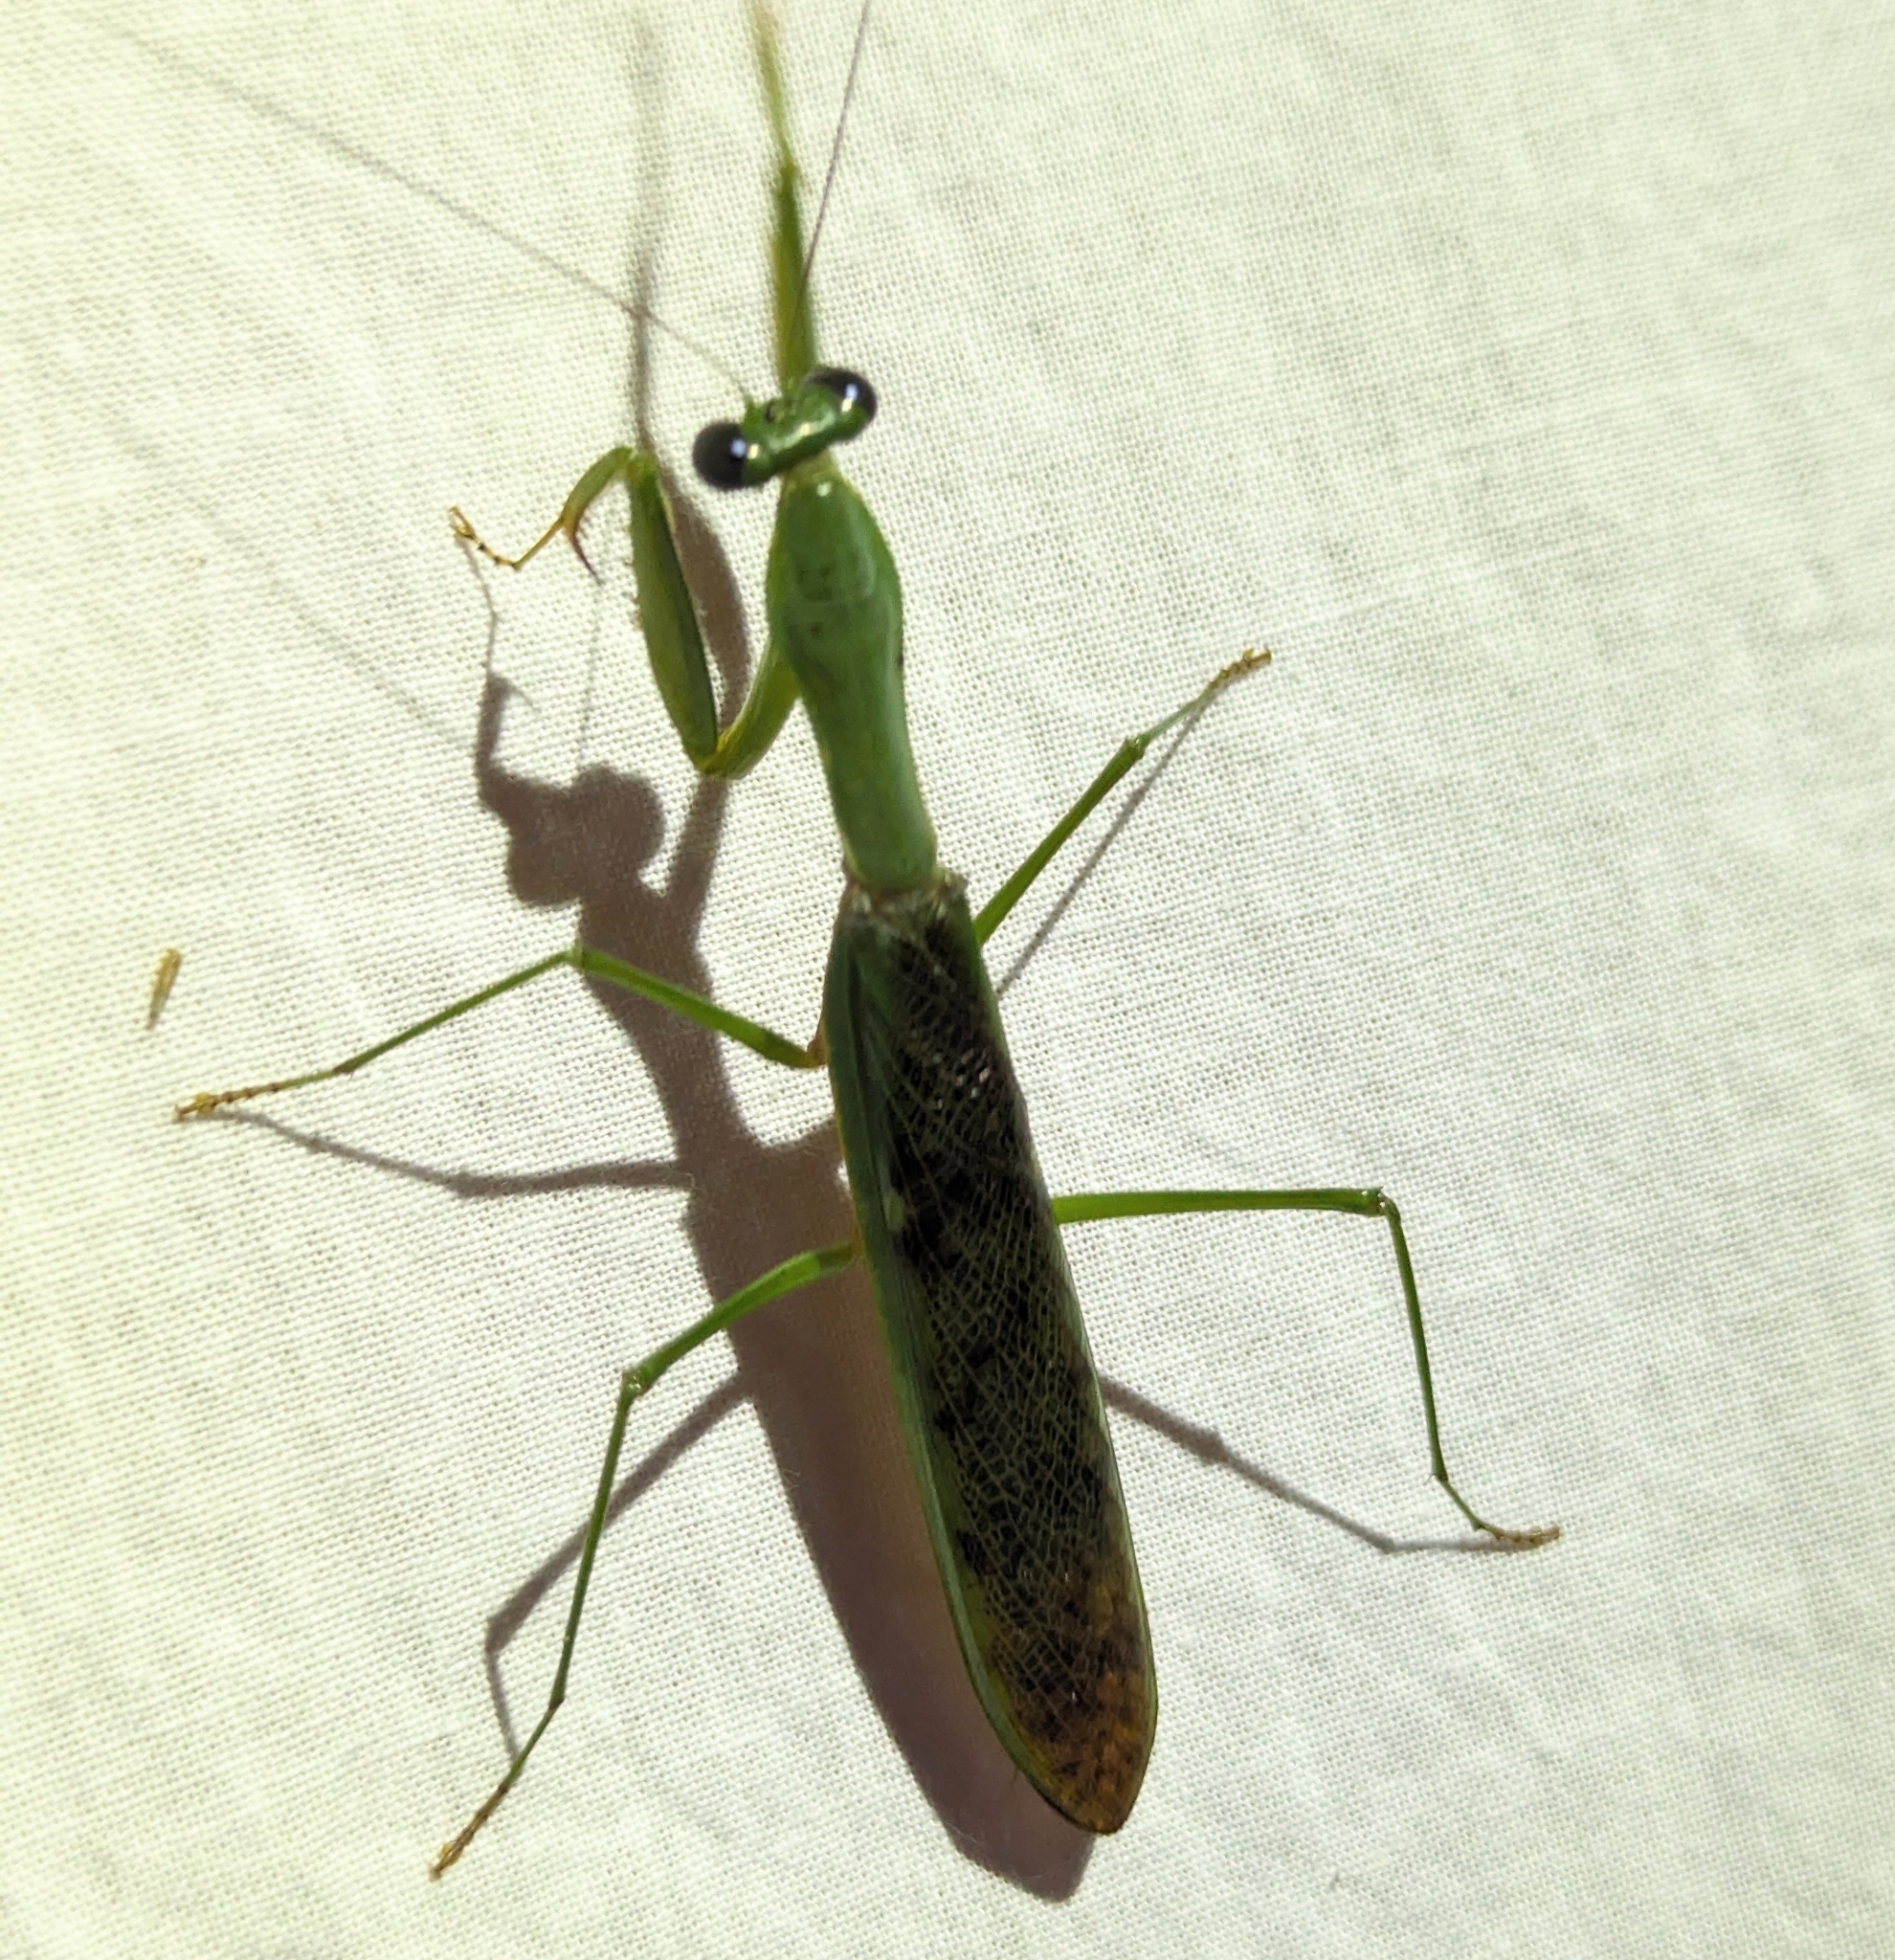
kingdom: Animalia
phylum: Arthropoda
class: Insecta
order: Mantodea
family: Mantidae
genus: Prohierodula
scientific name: Prohierodula ornatipennis
